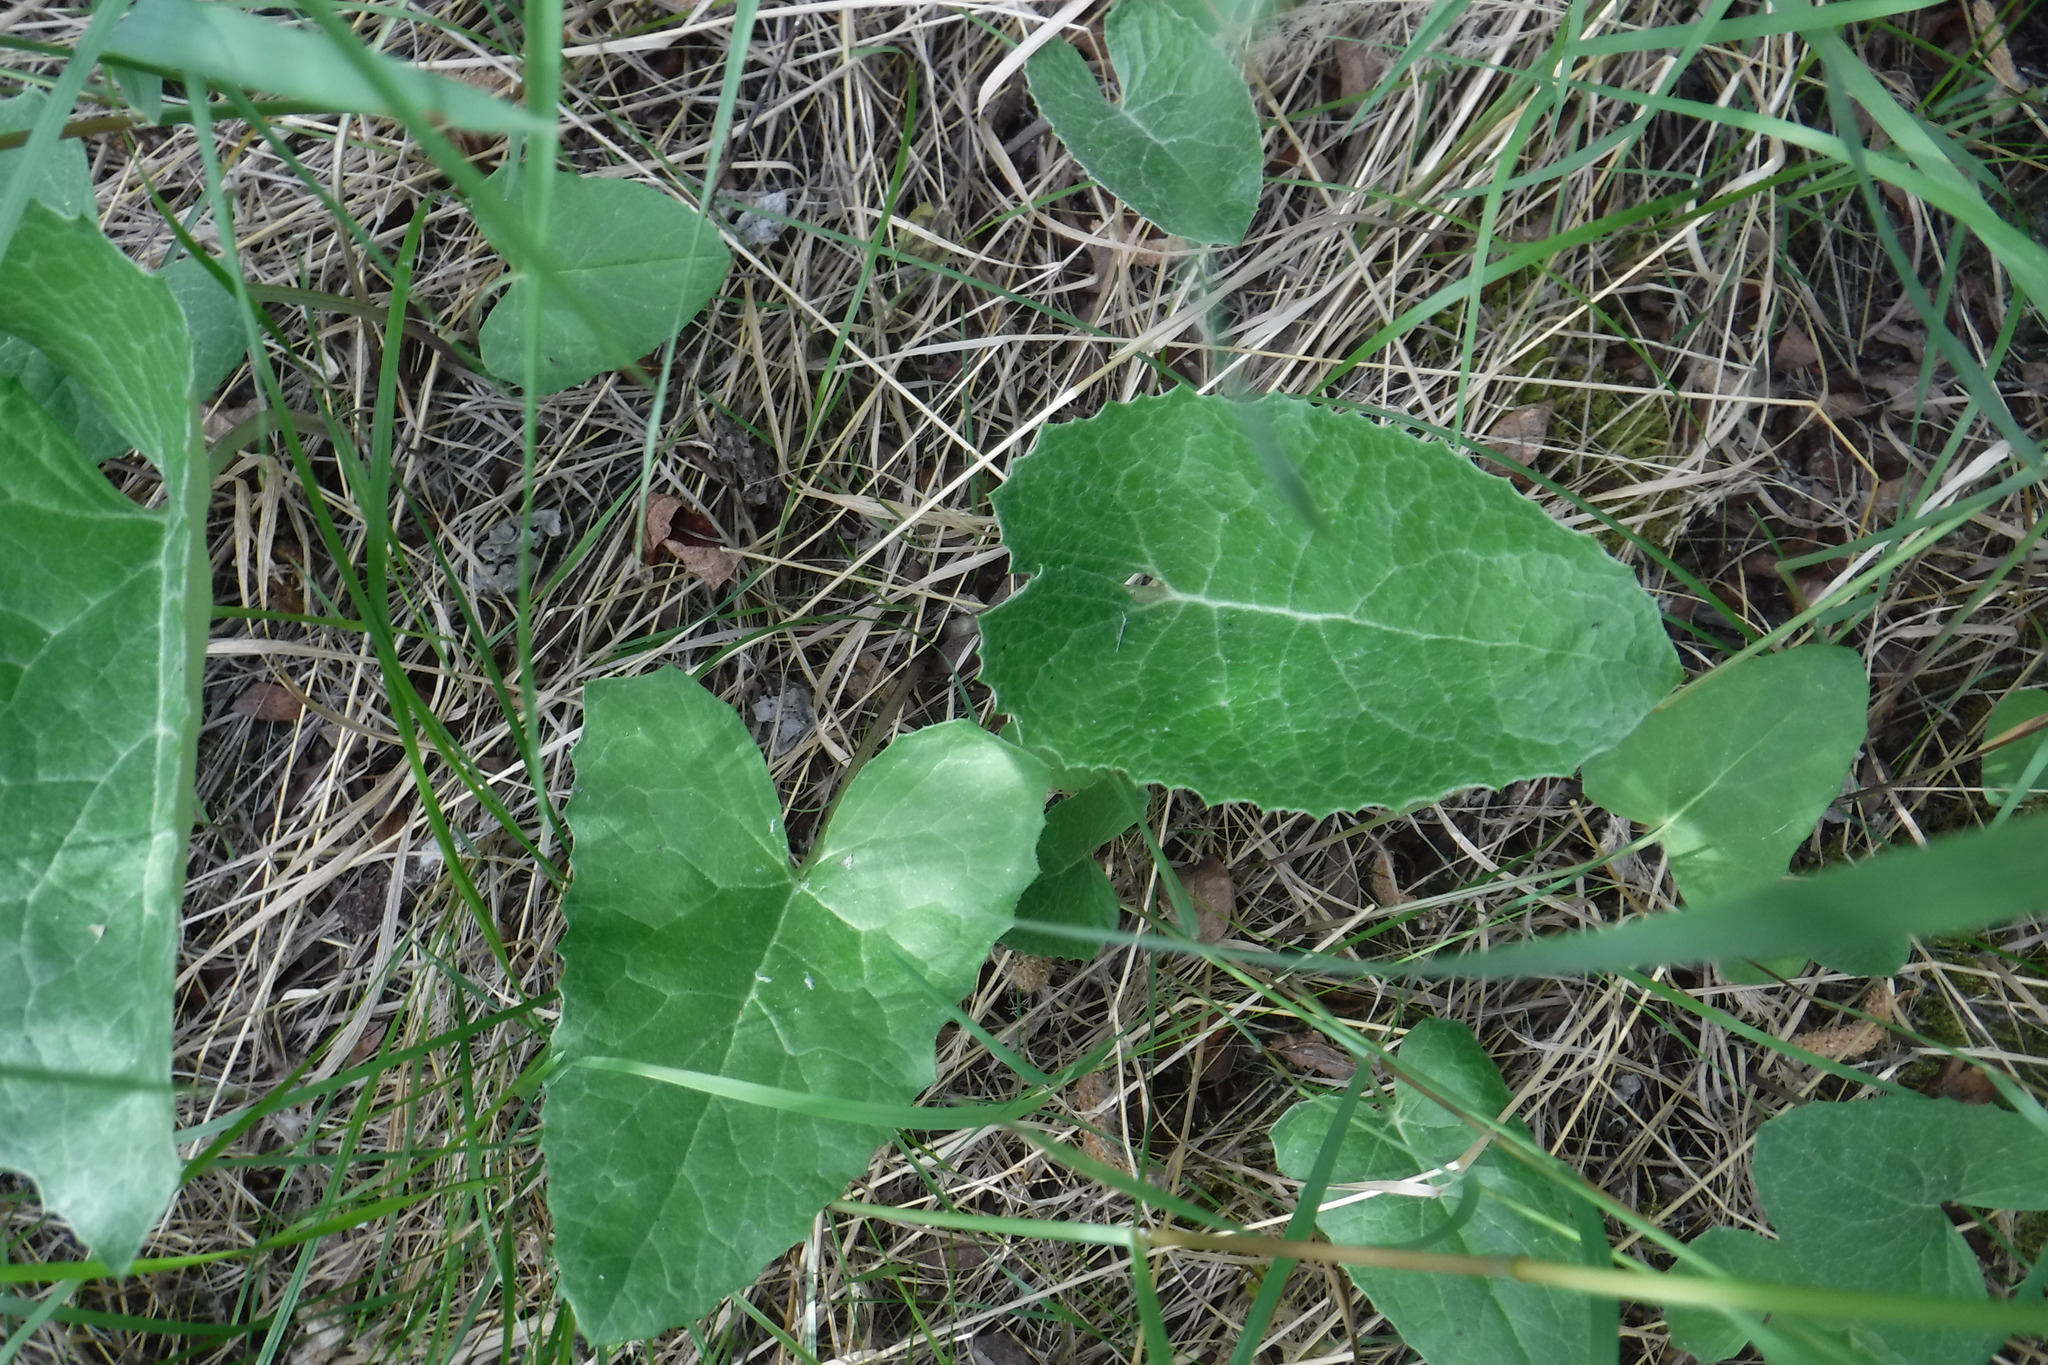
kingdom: Plantae
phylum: Tracheophyta
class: Magnoliopsida
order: Asterales
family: Asteraceae
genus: Petasites
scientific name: Petasites frigidus
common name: Arctic butterbur
